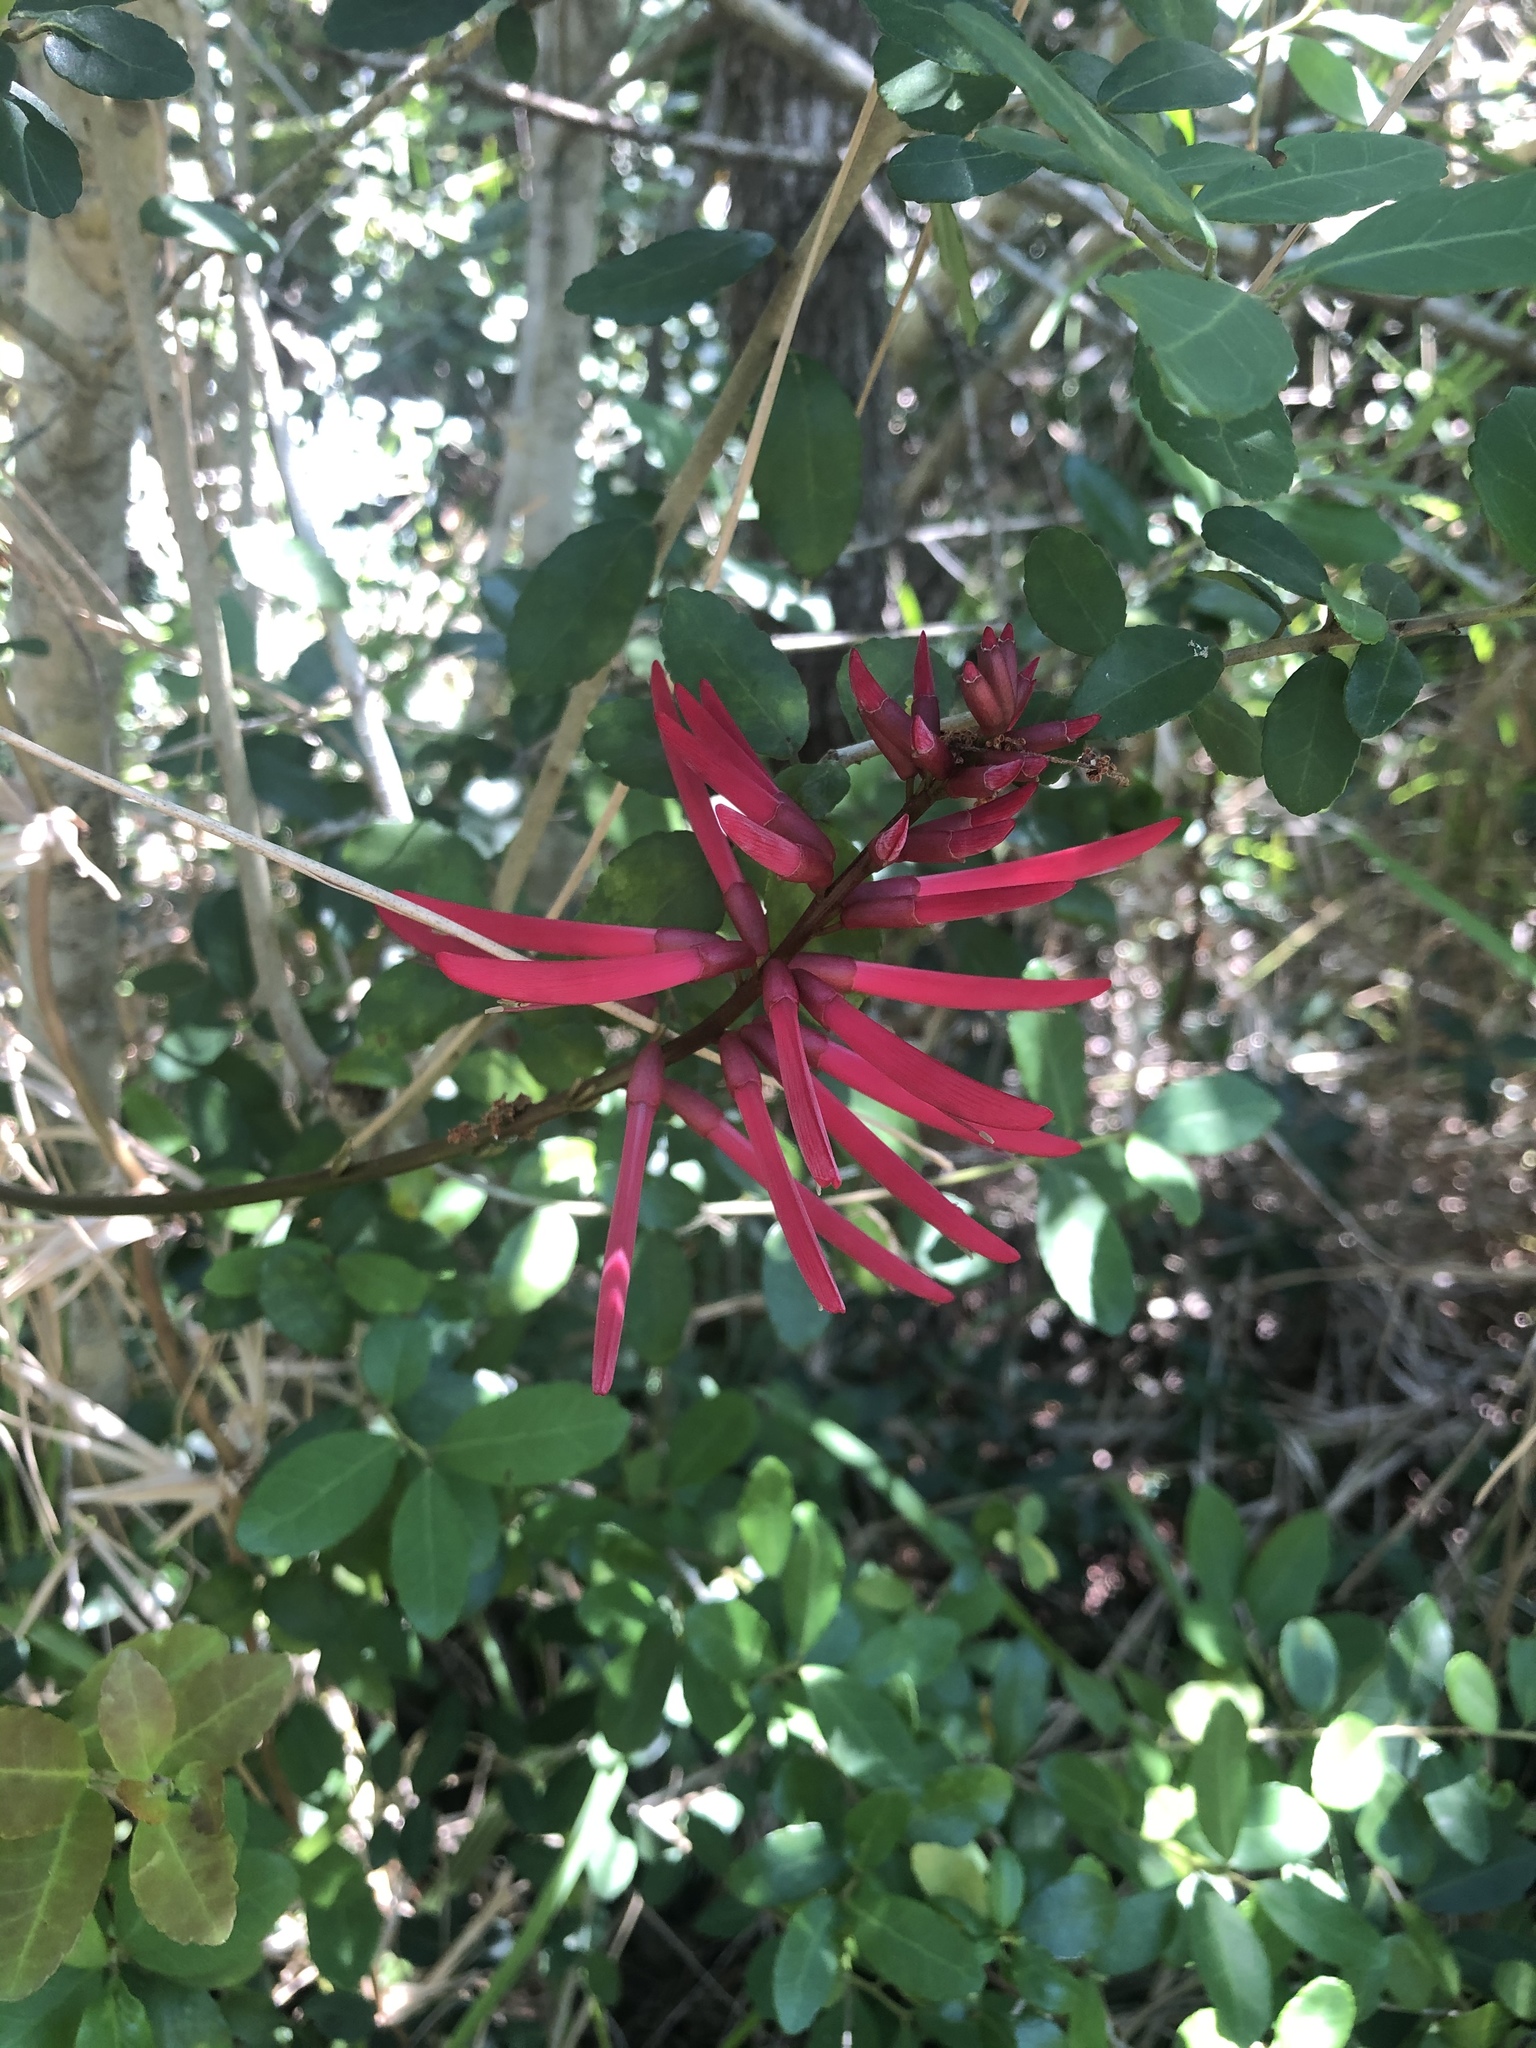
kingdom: Plantae
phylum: Tracheophyta
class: Magnoliopsida
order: Fabales
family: Fabaceae
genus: Erythrina
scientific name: Erythrina herbacea
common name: Coral-bean
